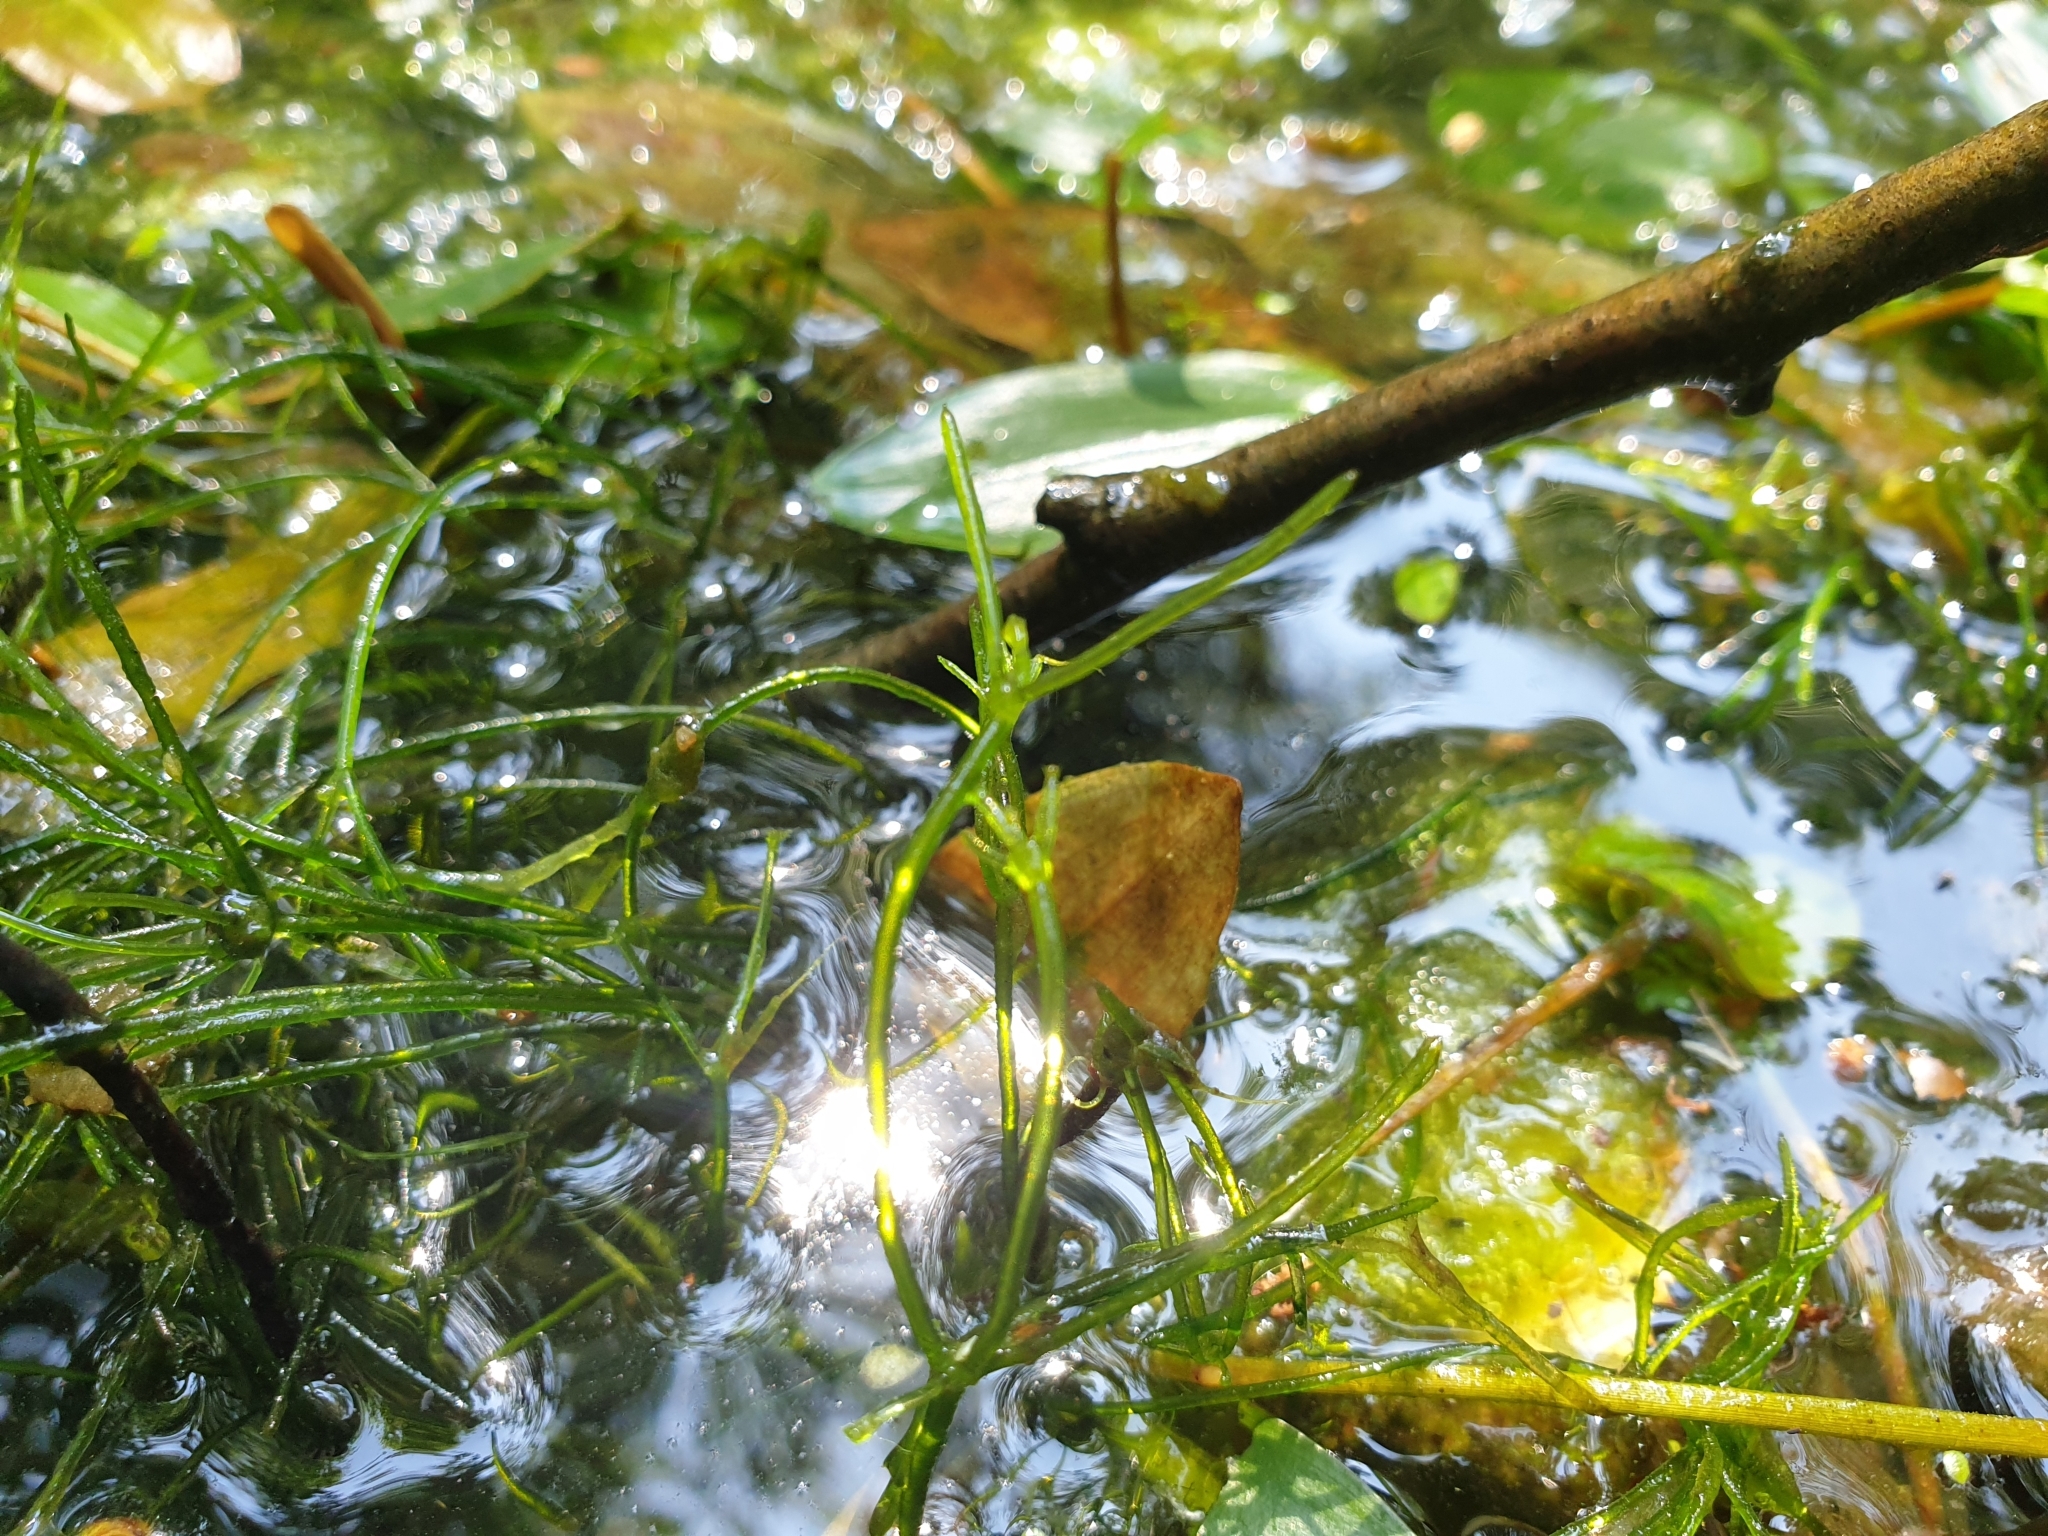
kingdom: Plantae
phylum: Charophyta
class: Charophyceae
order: Charales
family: Characeae
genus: Nitella
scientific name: Nitella translucens
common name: Translucent stonewort
